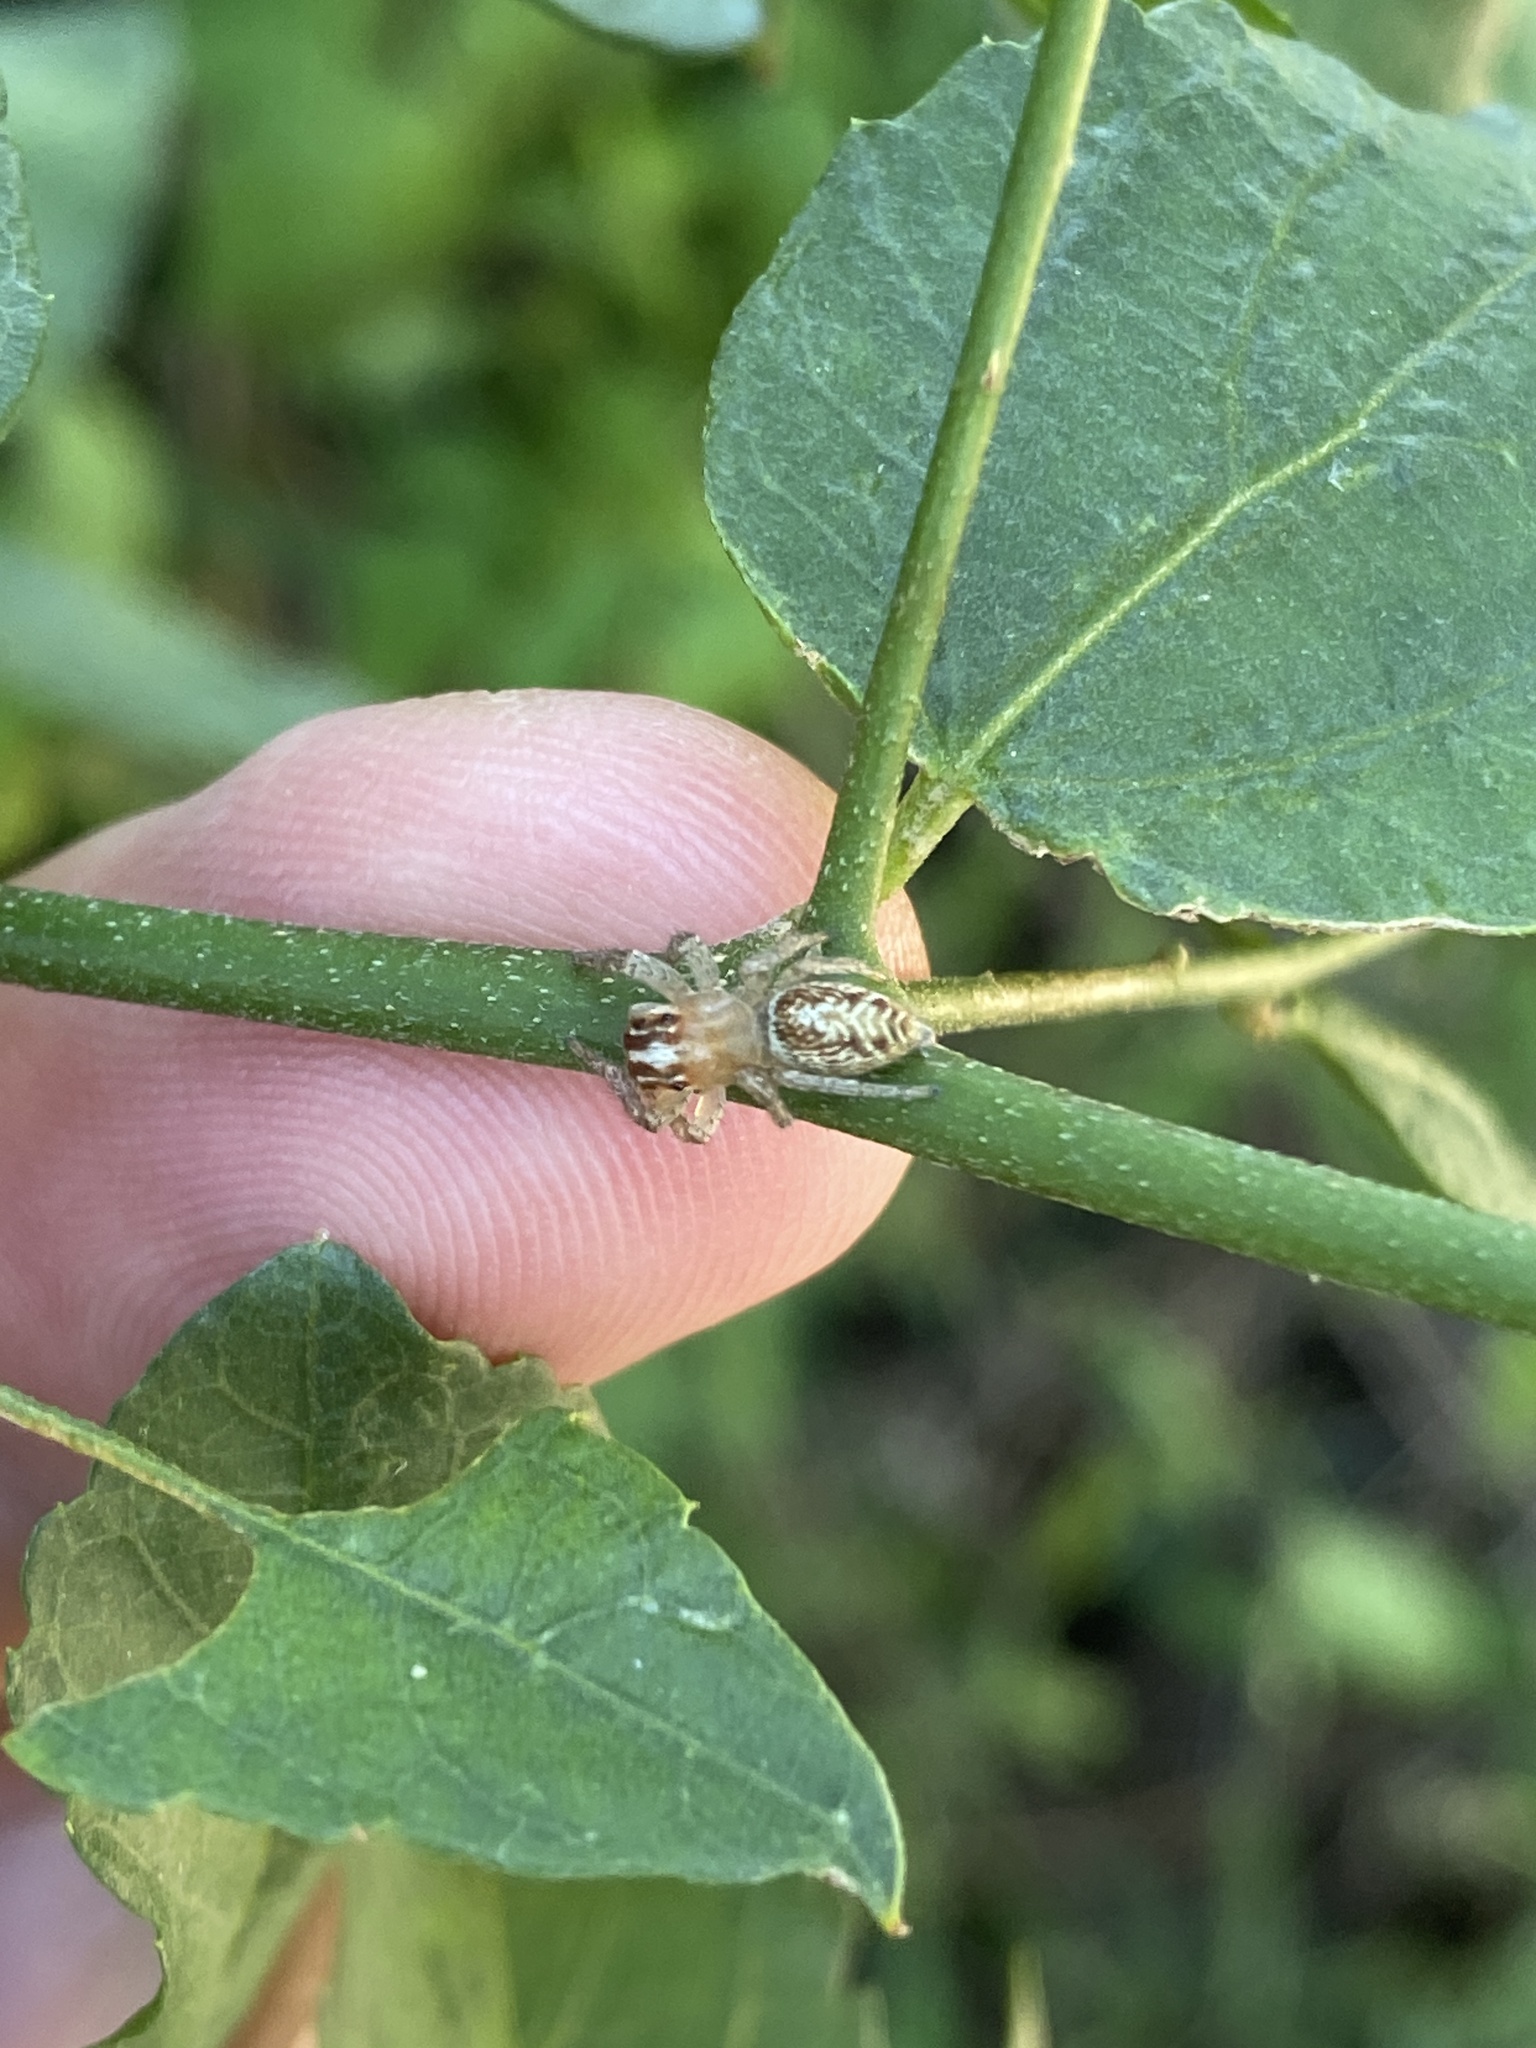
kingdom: Animalia
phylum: Arthropoda
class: Arachnida
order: Araneae
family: Salticidae
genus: Chira
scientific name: Chira gounellei
